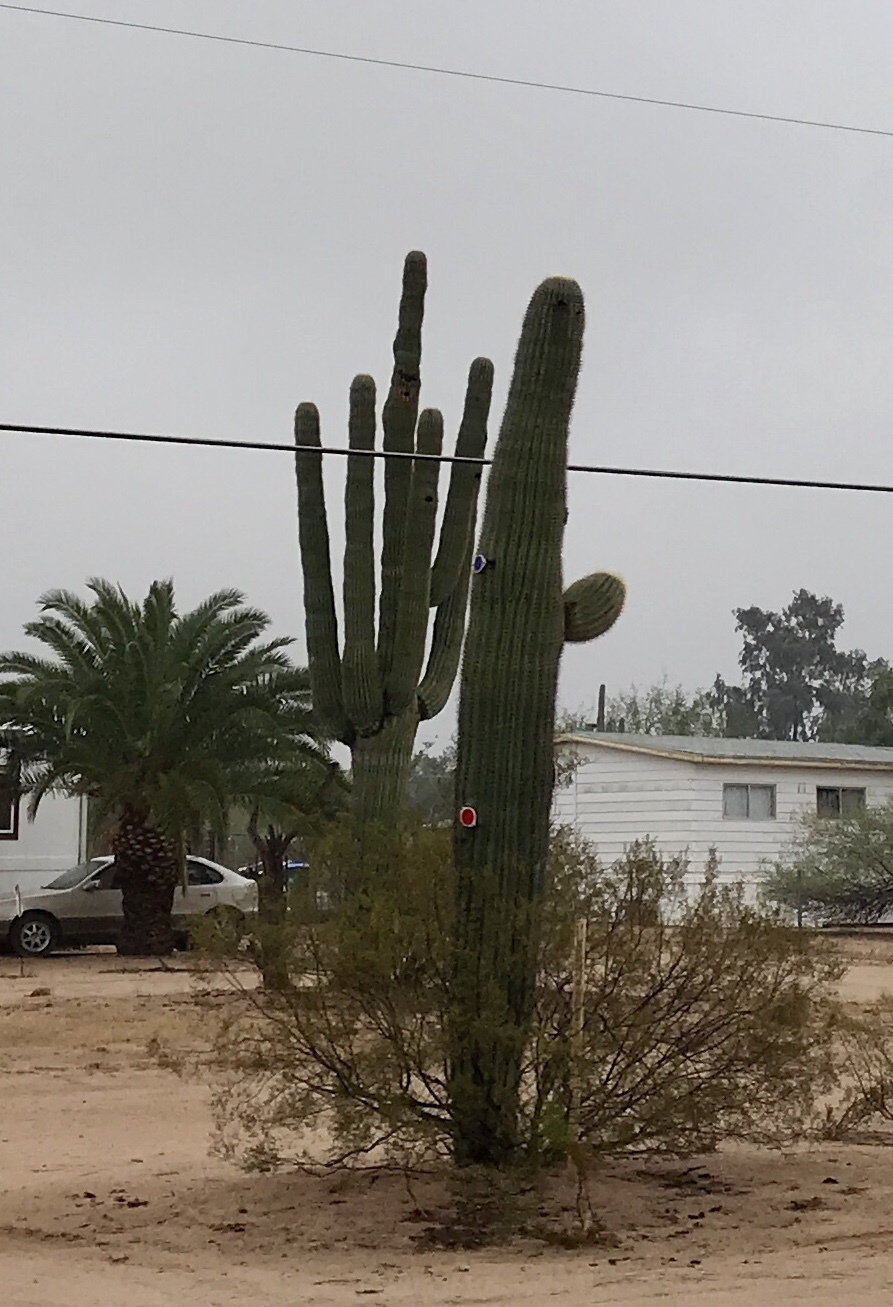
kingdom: Plantae
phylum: Tracheophyta
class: Magnoliopsida
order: Caryophyllales
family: Cactaceae
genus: Carnegiea
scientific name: Carnegiea gigantea
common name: Saguaro
